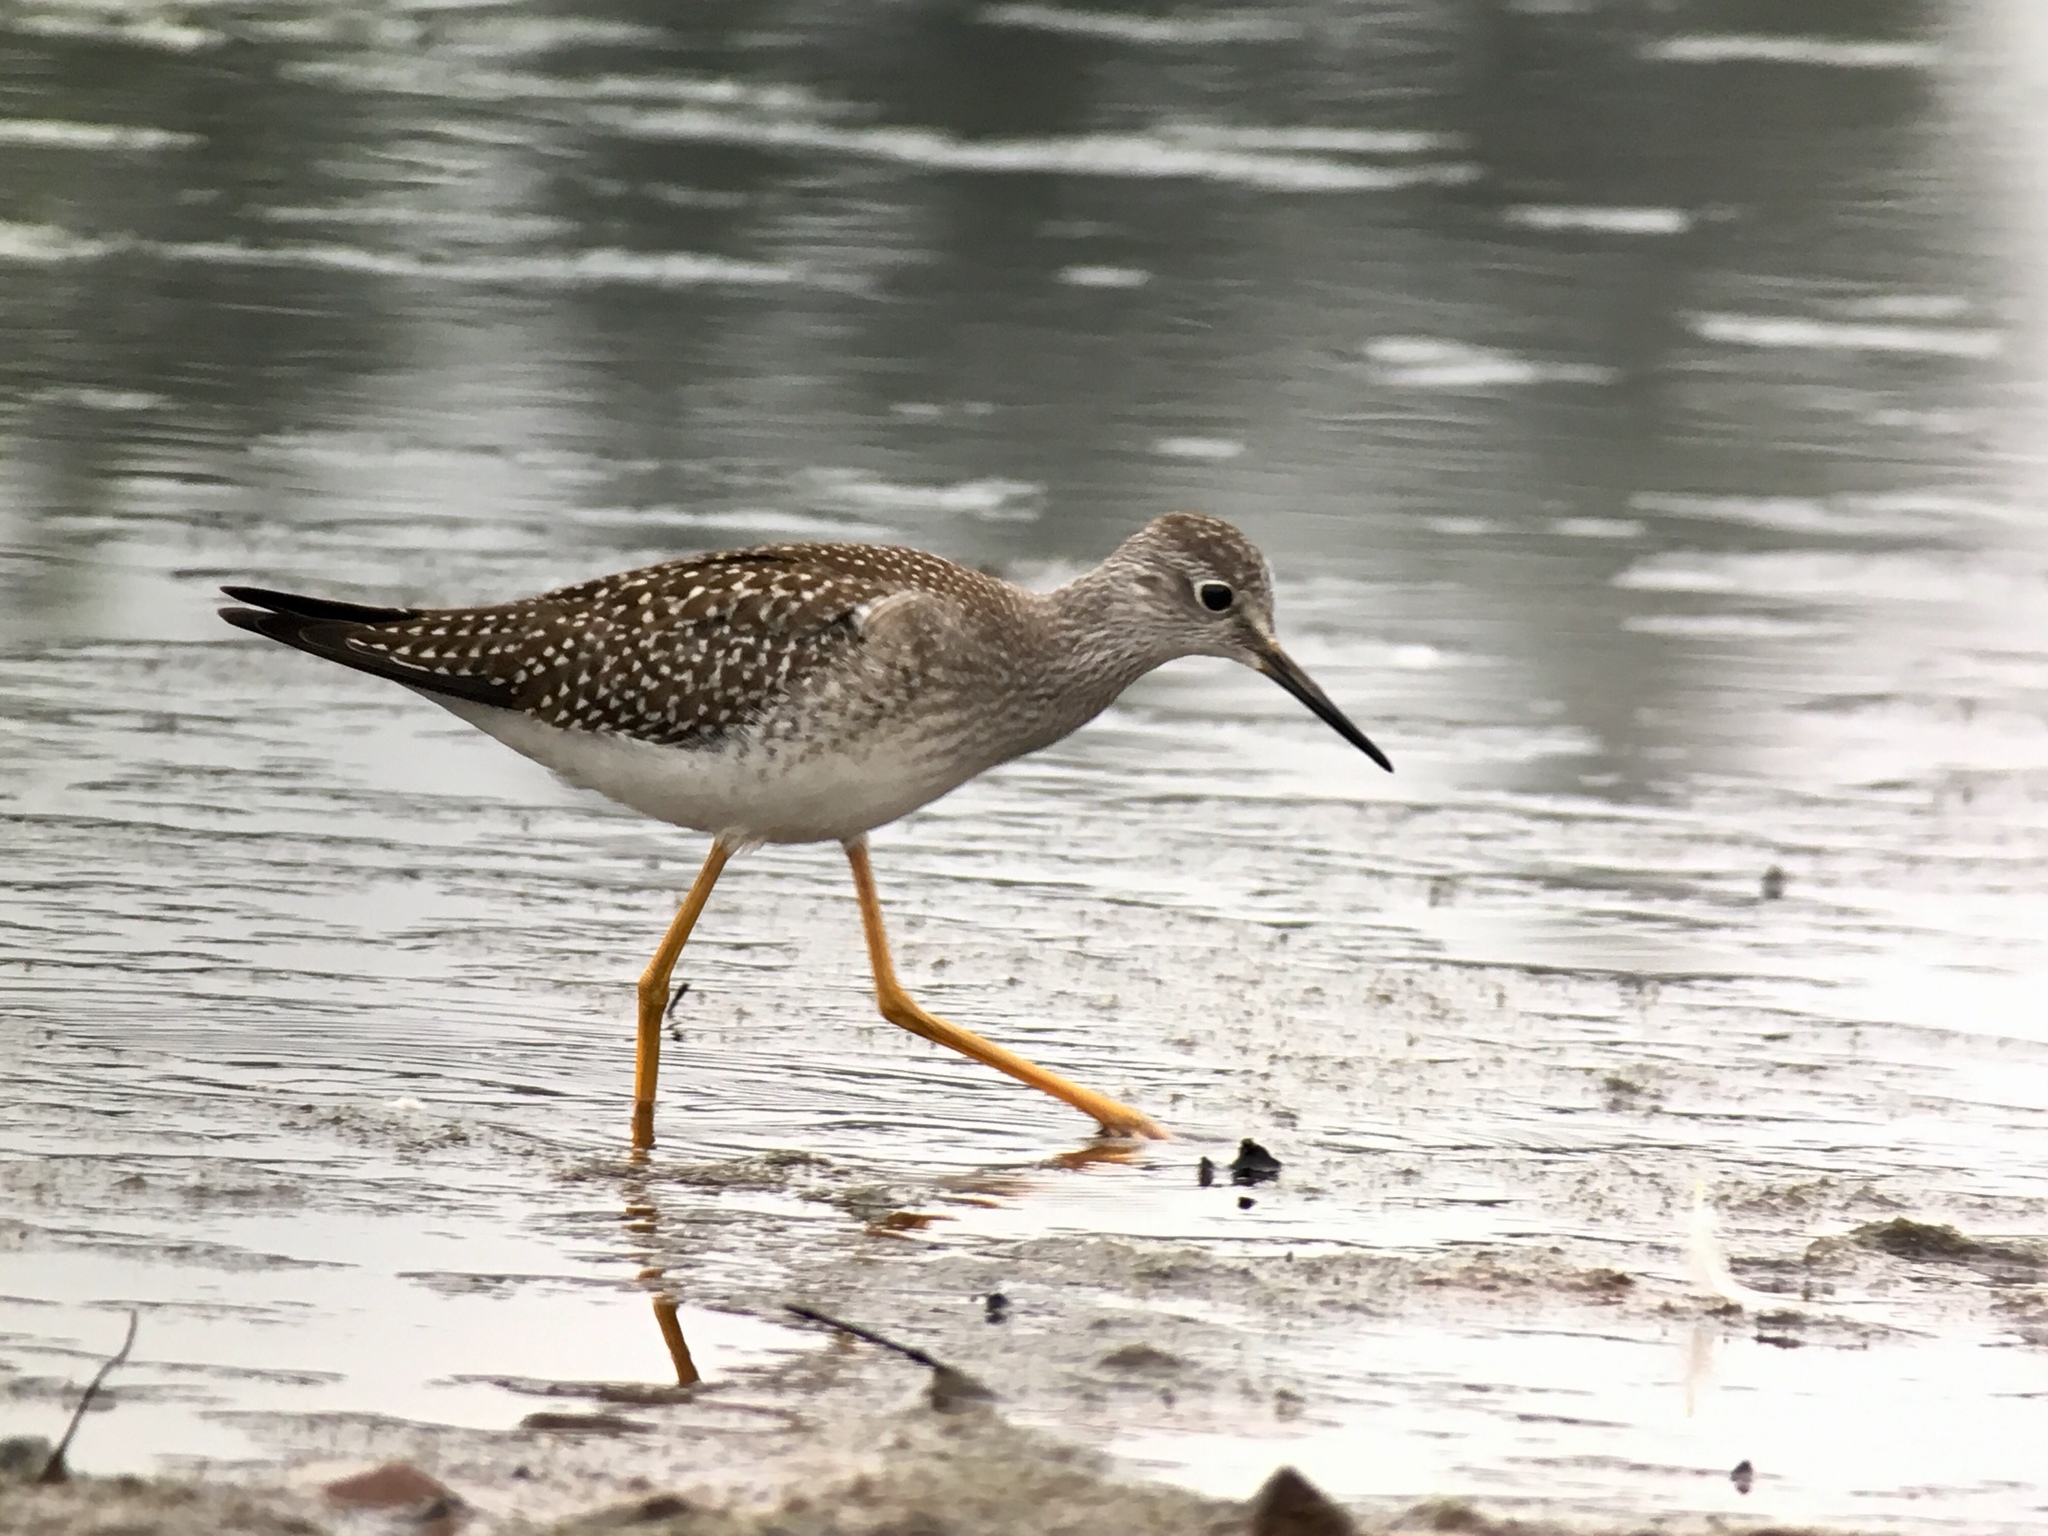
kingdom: Animalia
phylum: Chordata
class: Aves
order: Charadriiformes
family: Scolopacidae
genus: Tringa
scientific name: Tringa flavipes
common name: Lesser yellowlegs
